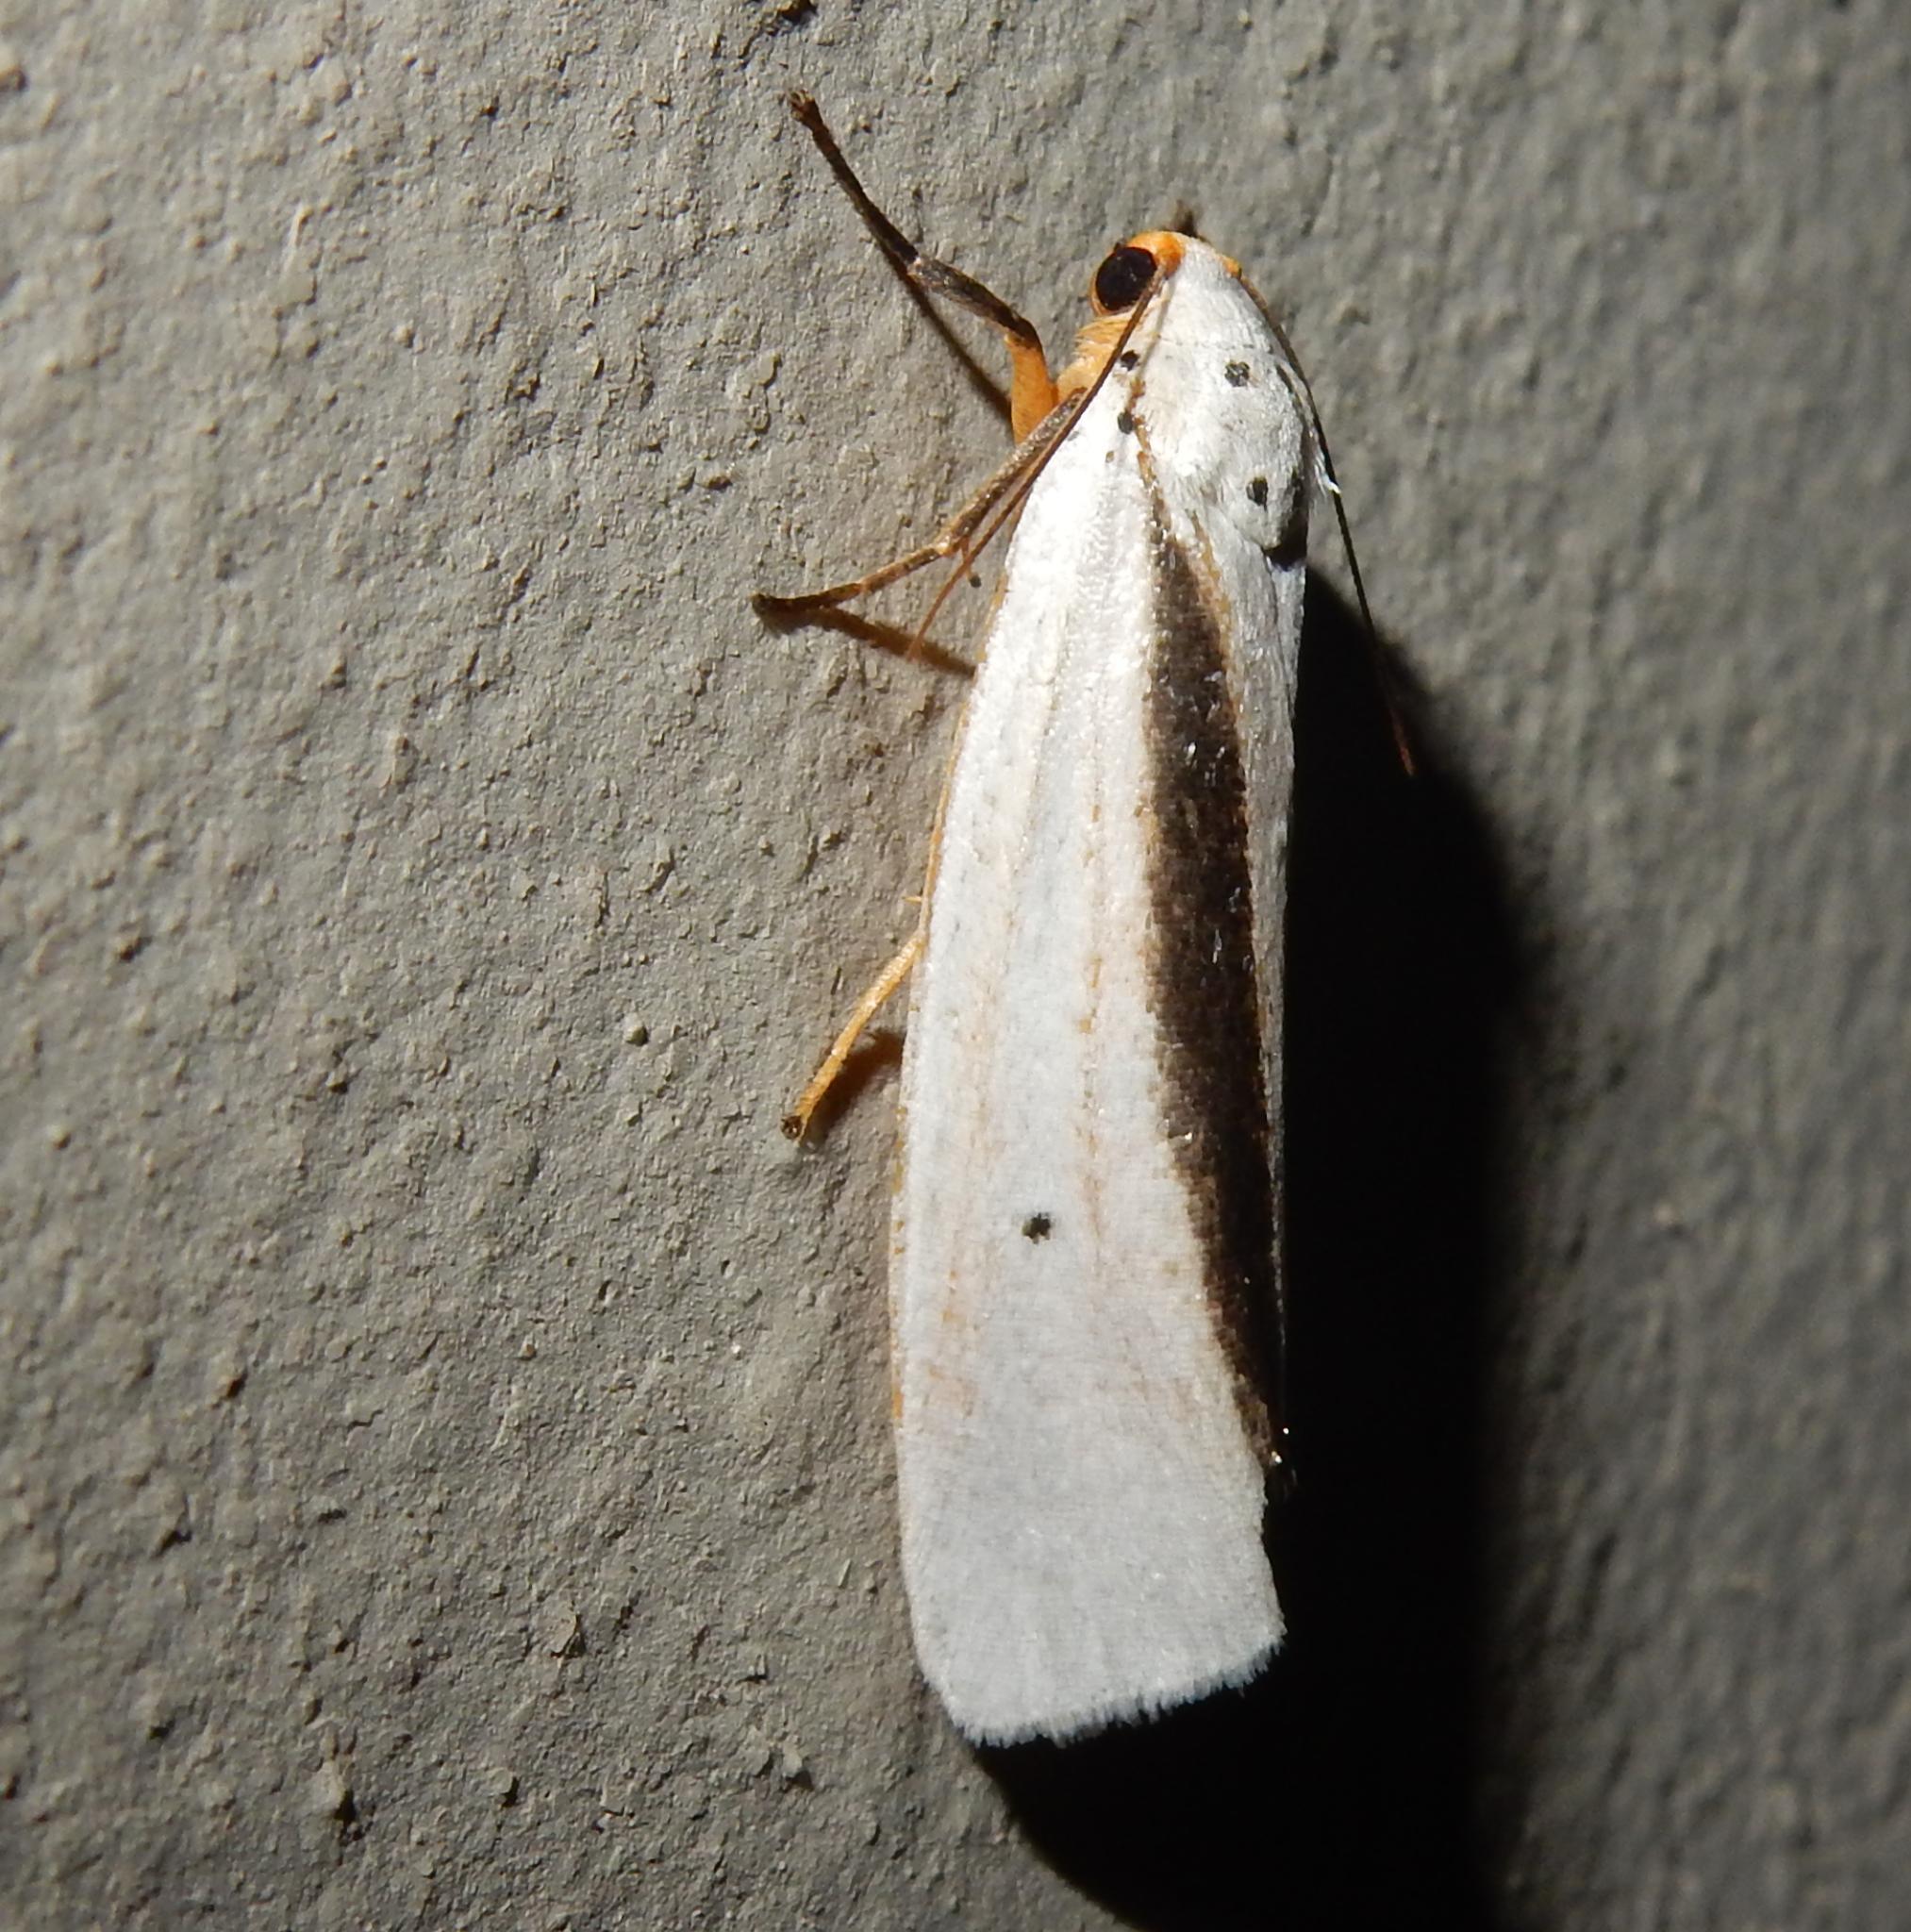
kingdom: Animalia
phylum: Arthropoda
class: Insecta
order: Lepidoptera
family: Erebidae
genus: Ilemodes
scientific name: Ilemodes heterogyna
